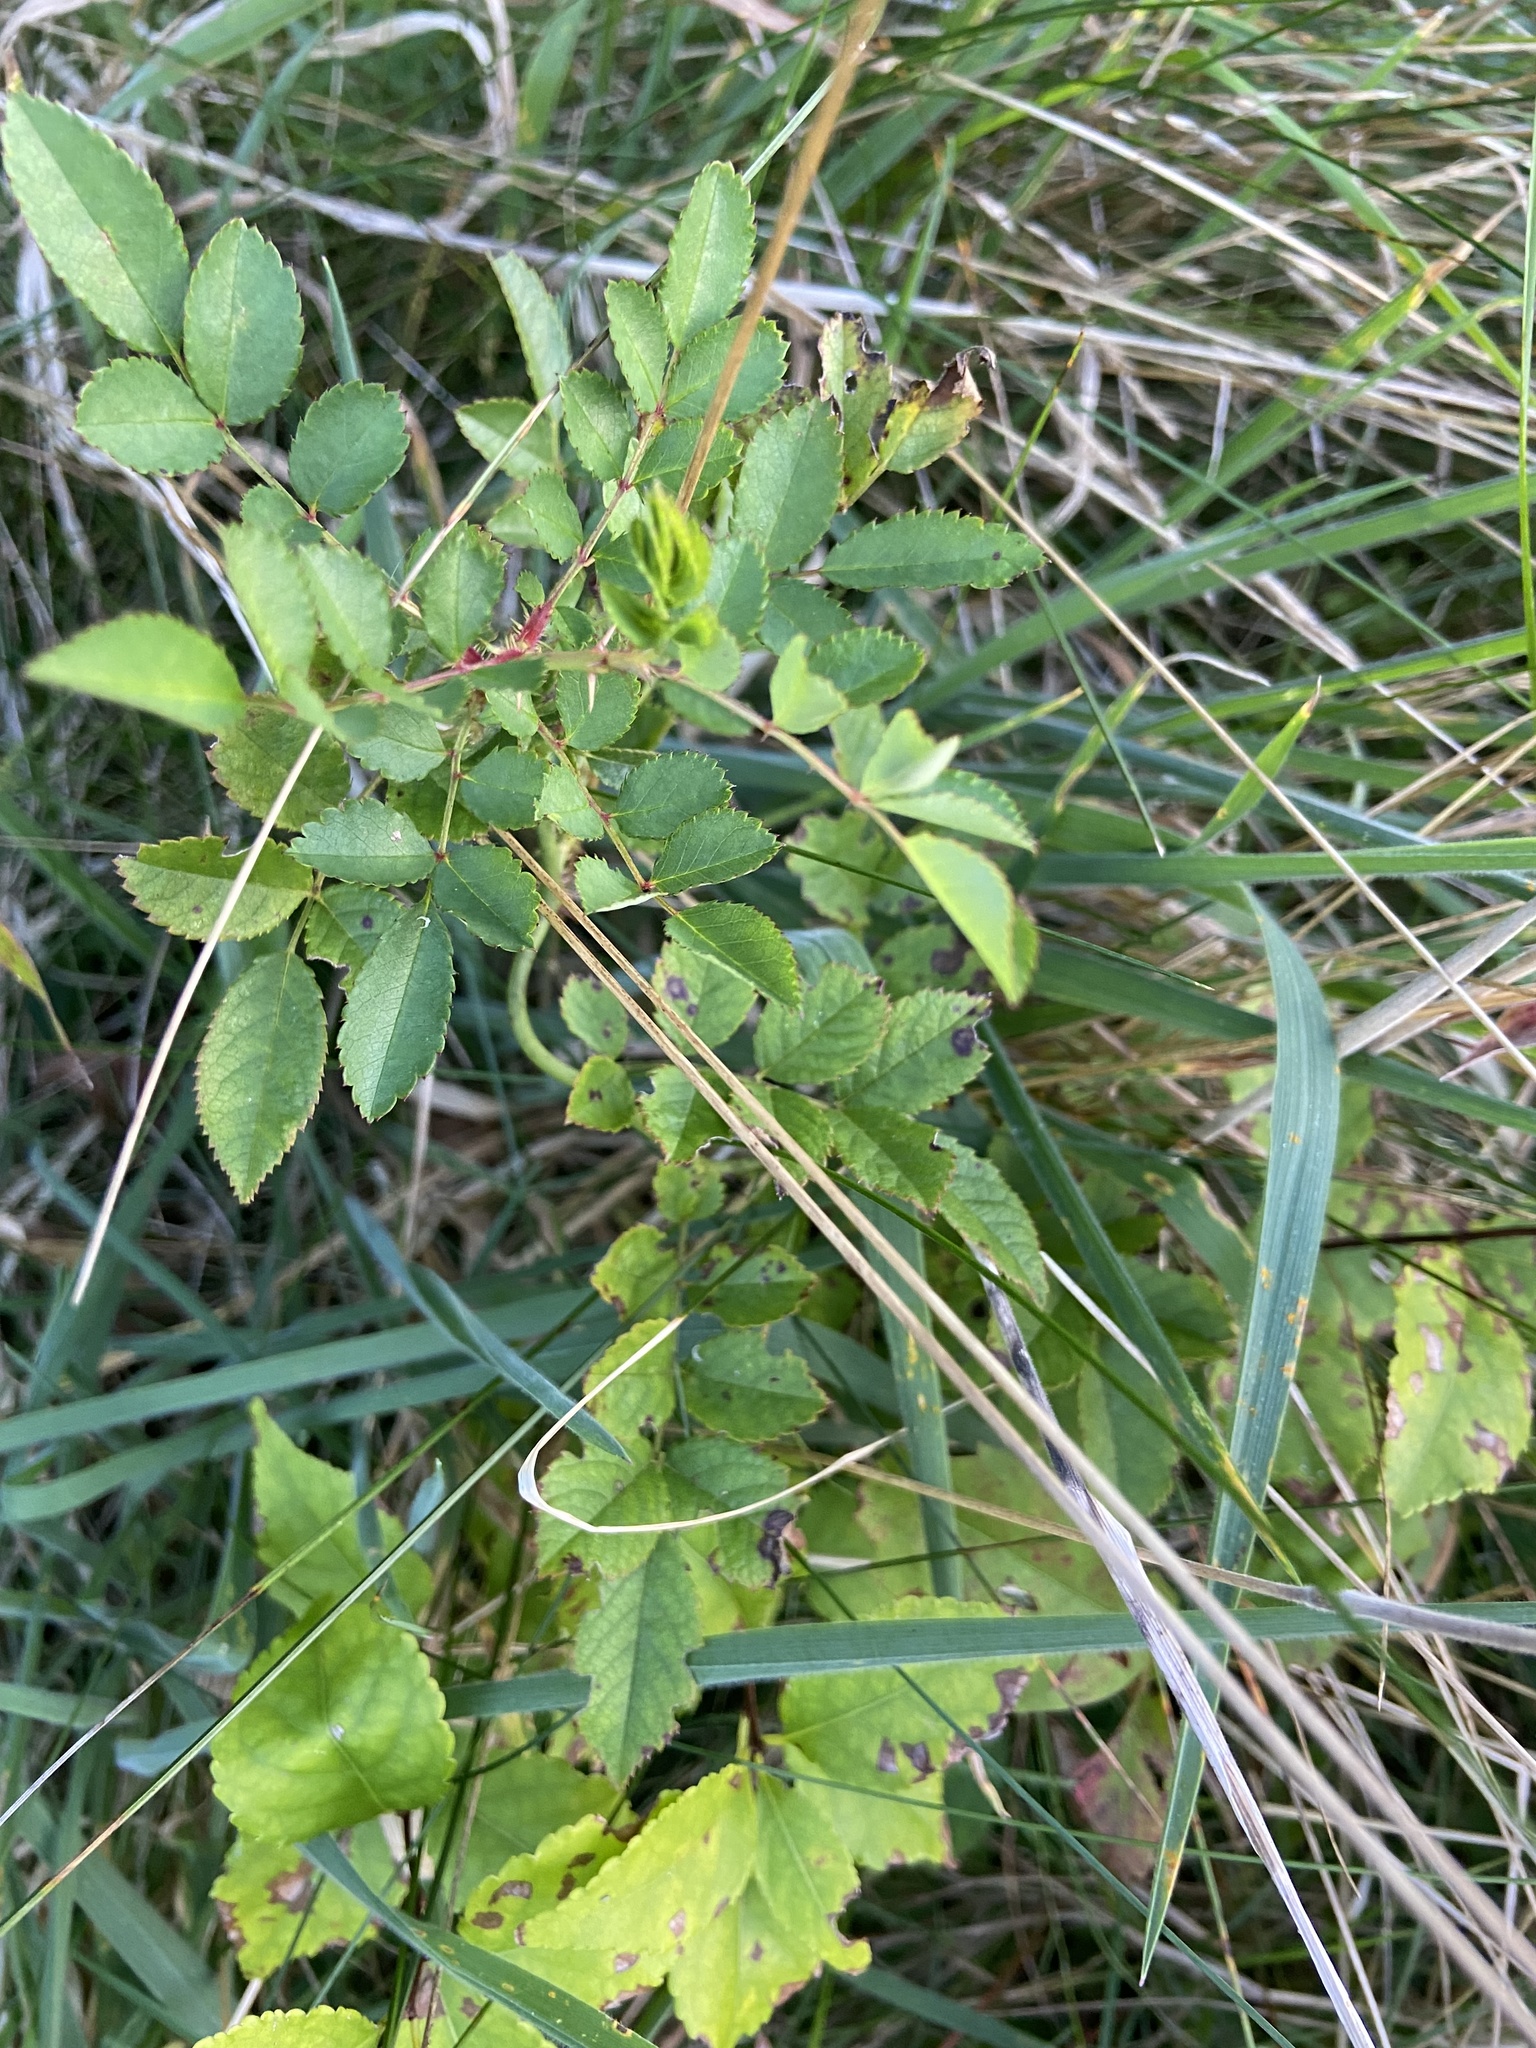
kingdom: Plantae
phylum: Tracheophyta
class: Magnoliopsida
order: Rosales
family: Rosaceae
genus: Rosa
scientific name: Rosa multiflora
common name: Multiflora rose
